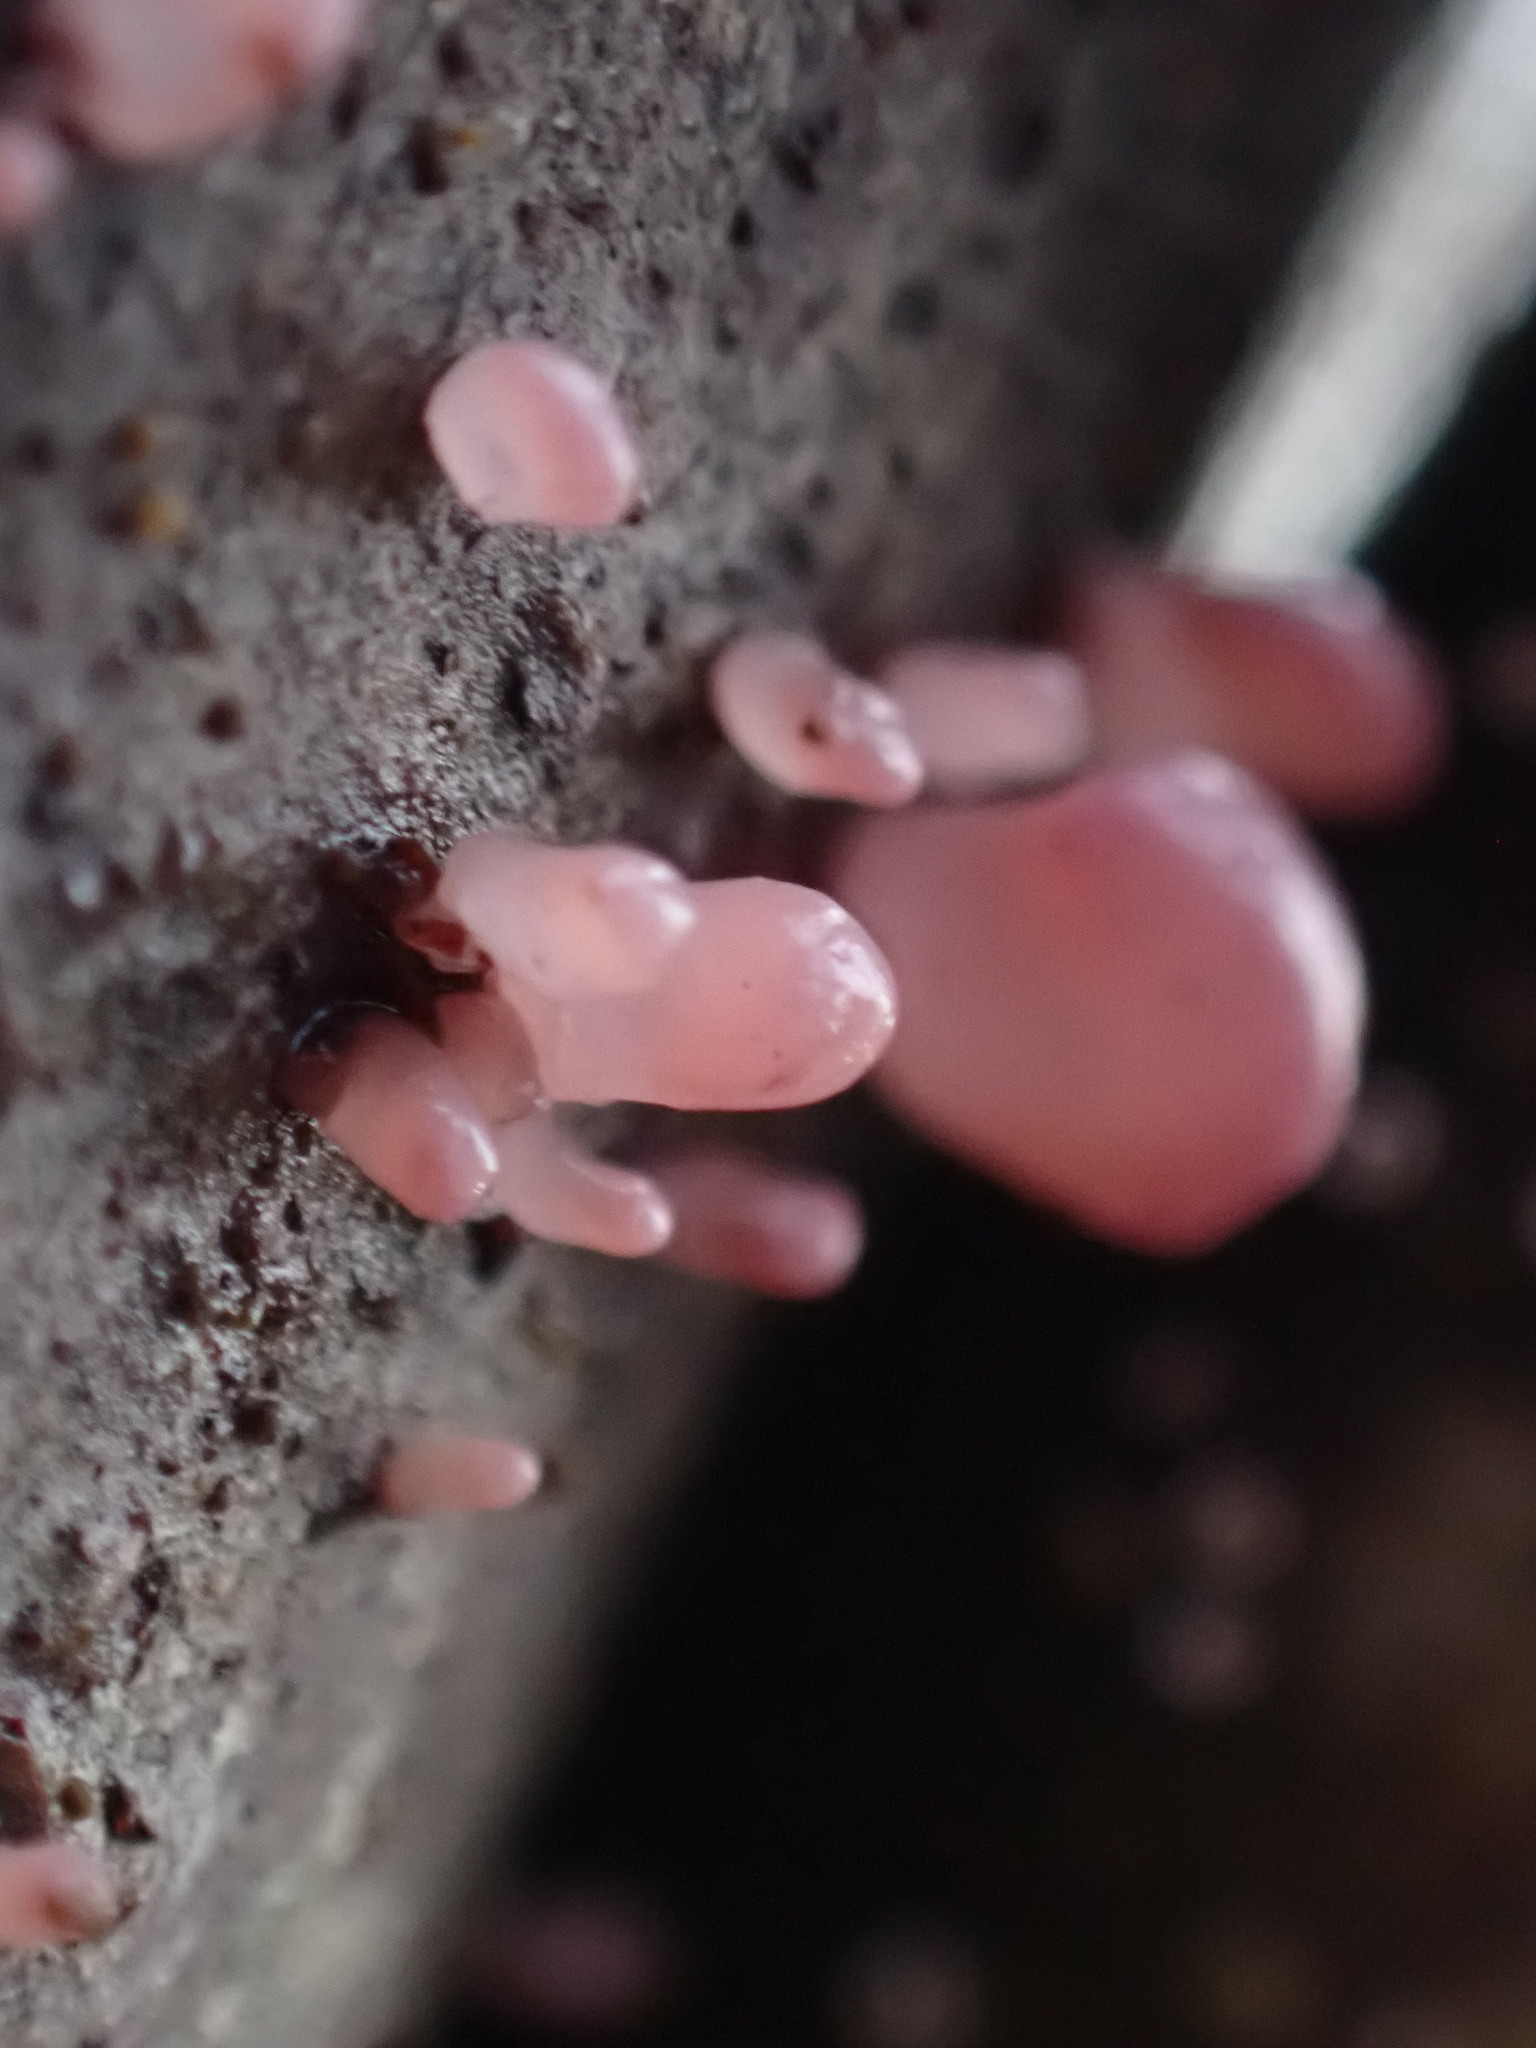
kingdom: Fungi
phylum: Ascomycota
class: Leotiomycetes
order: Helotiales
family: Gelatinodiscaceae
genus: Ascocoryne
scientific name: Ascocoryne sarcoides
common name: Purple jellydisc
